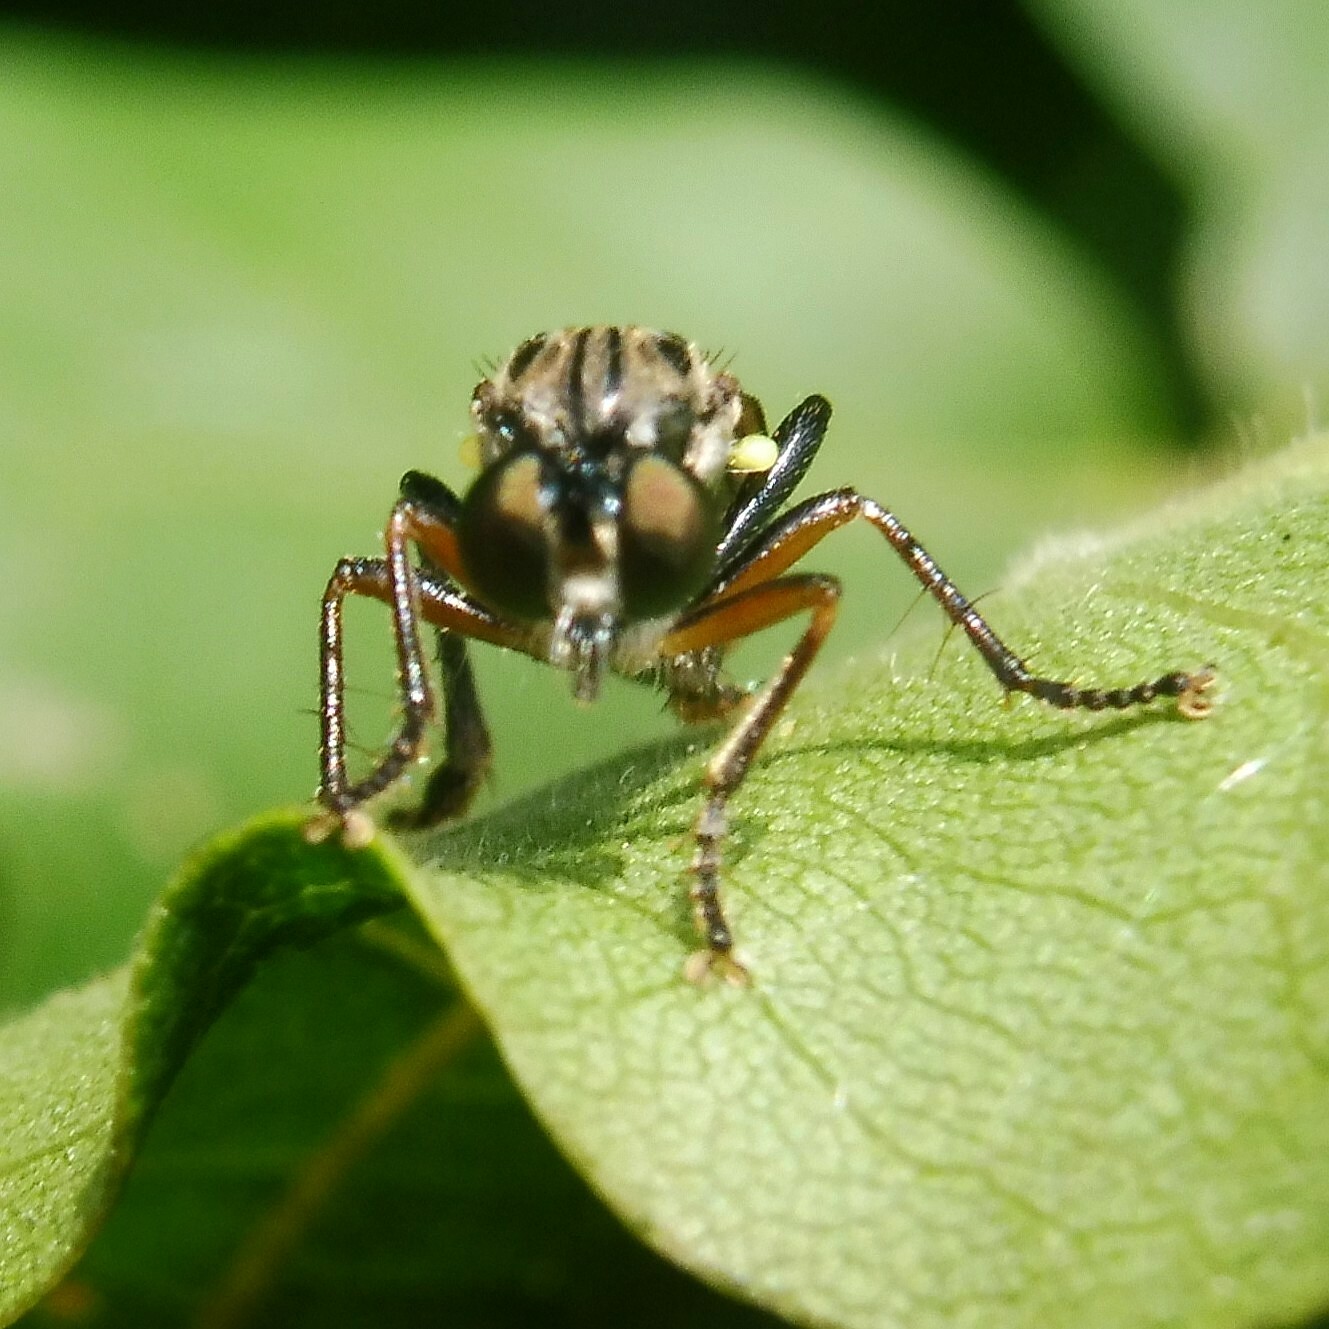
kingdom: Animalia
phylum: Arthropoda
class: Insecta
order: Diptera
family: Asilidae
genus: Dioctria
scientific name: Dioctria hyalipennis
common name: Stripe-legged robberfly
